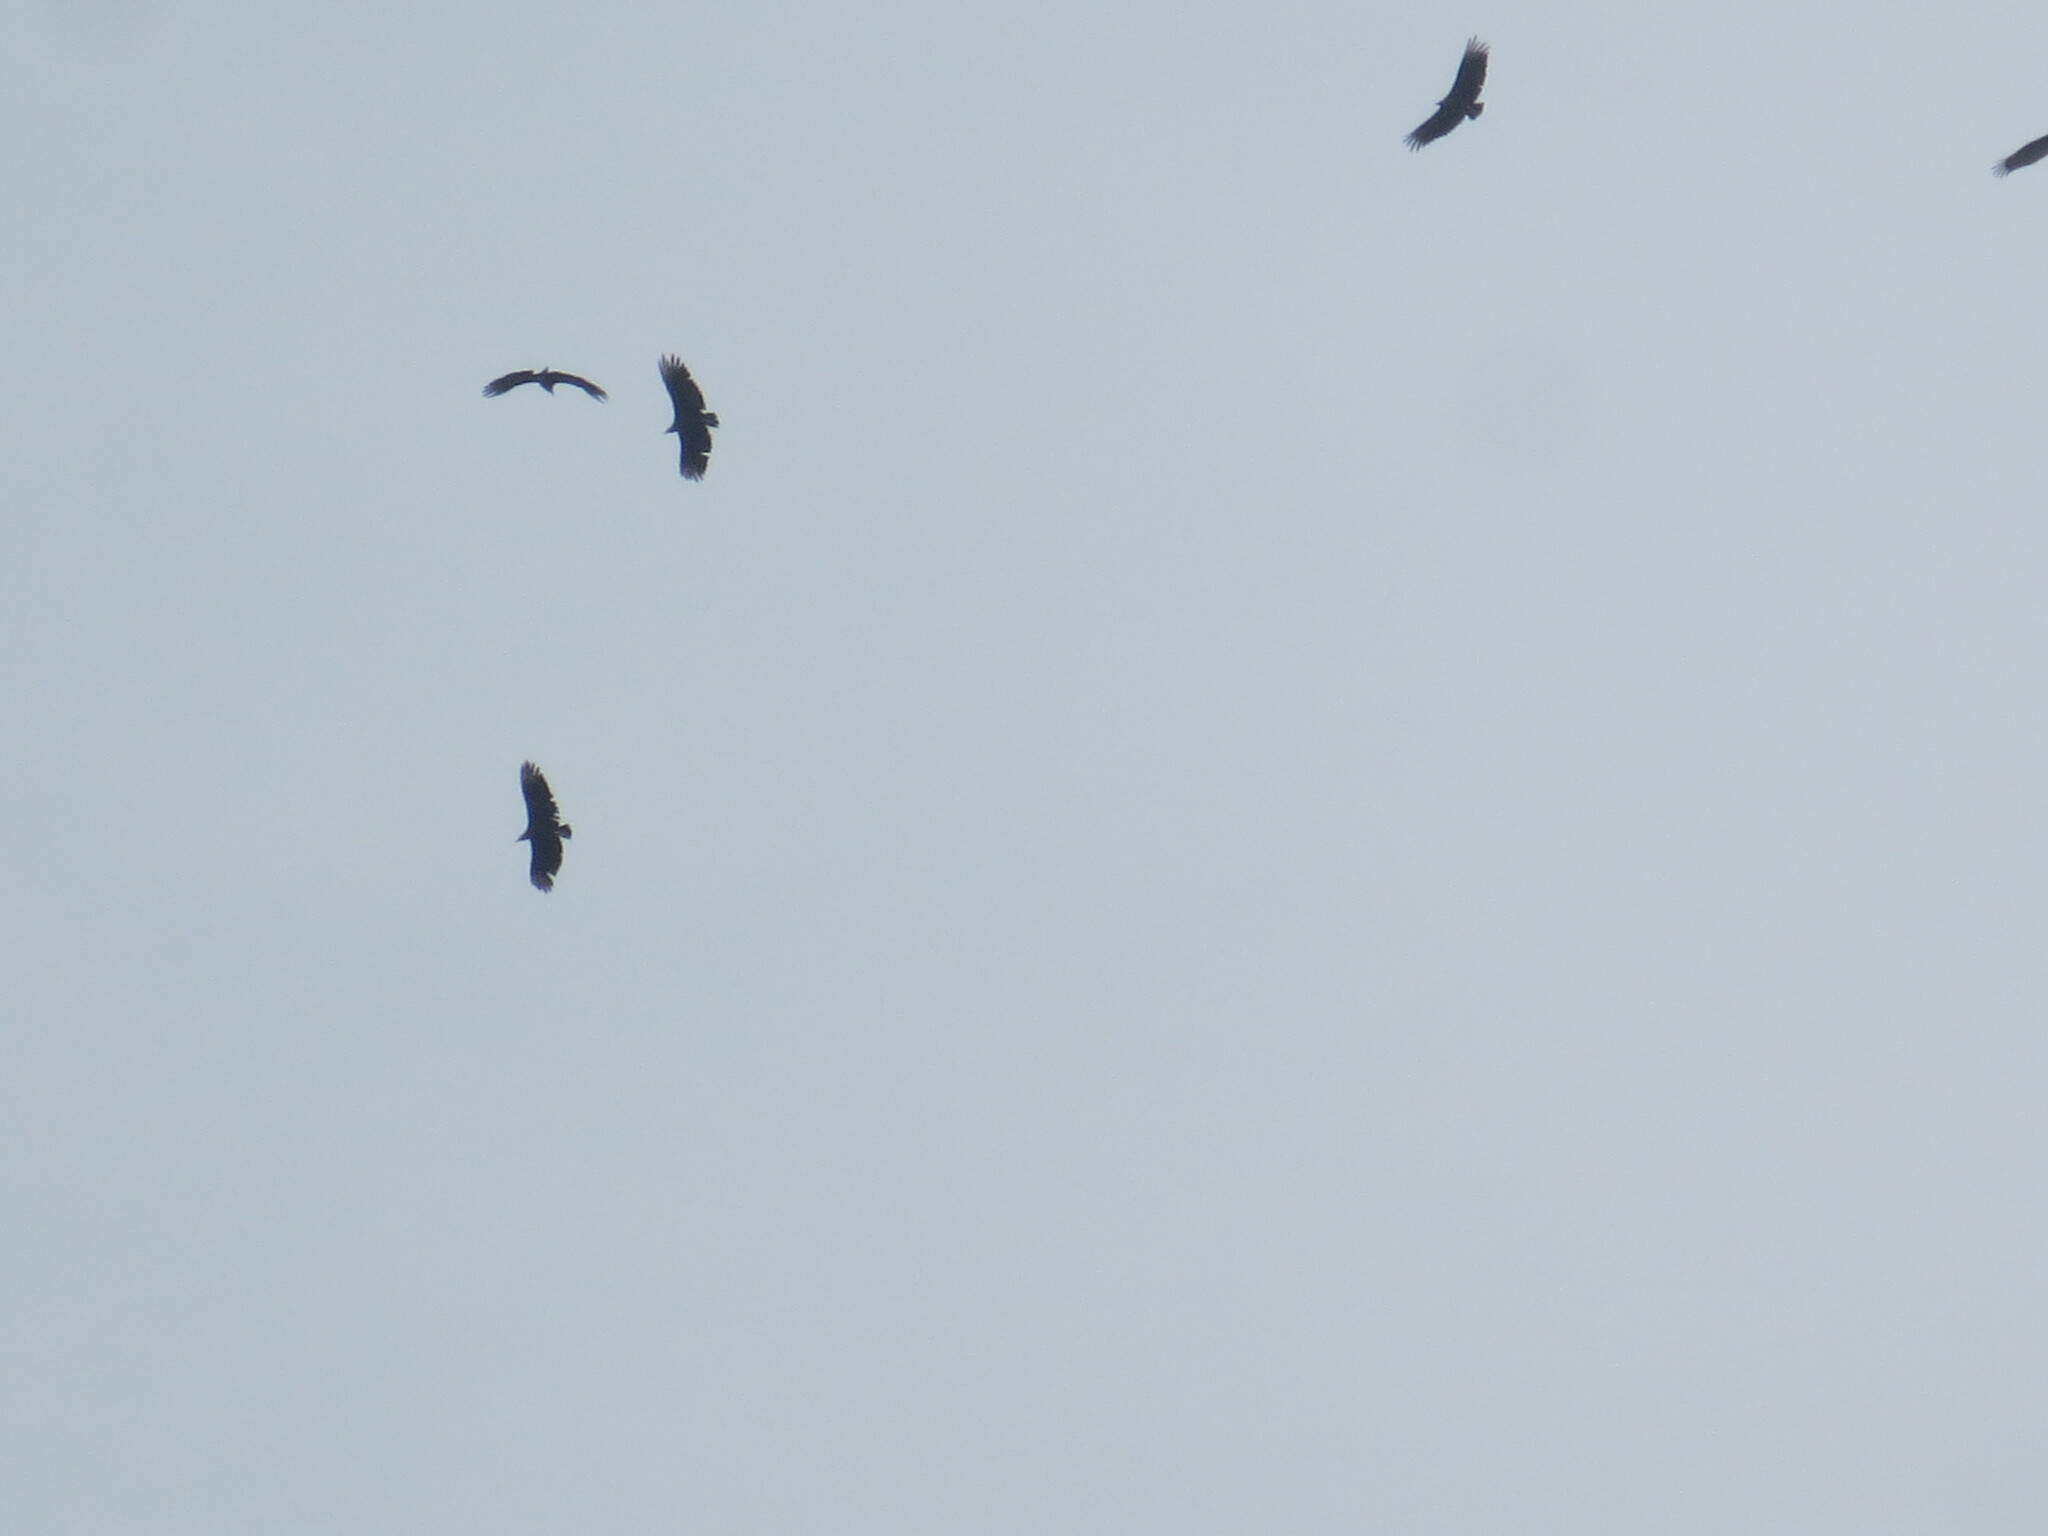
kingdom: Animalia
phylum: Chordata
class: Aves
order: Accipitriformes
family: Cathartidae
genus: Coragyps
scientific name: Coragyps atratus
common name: Black vulture
